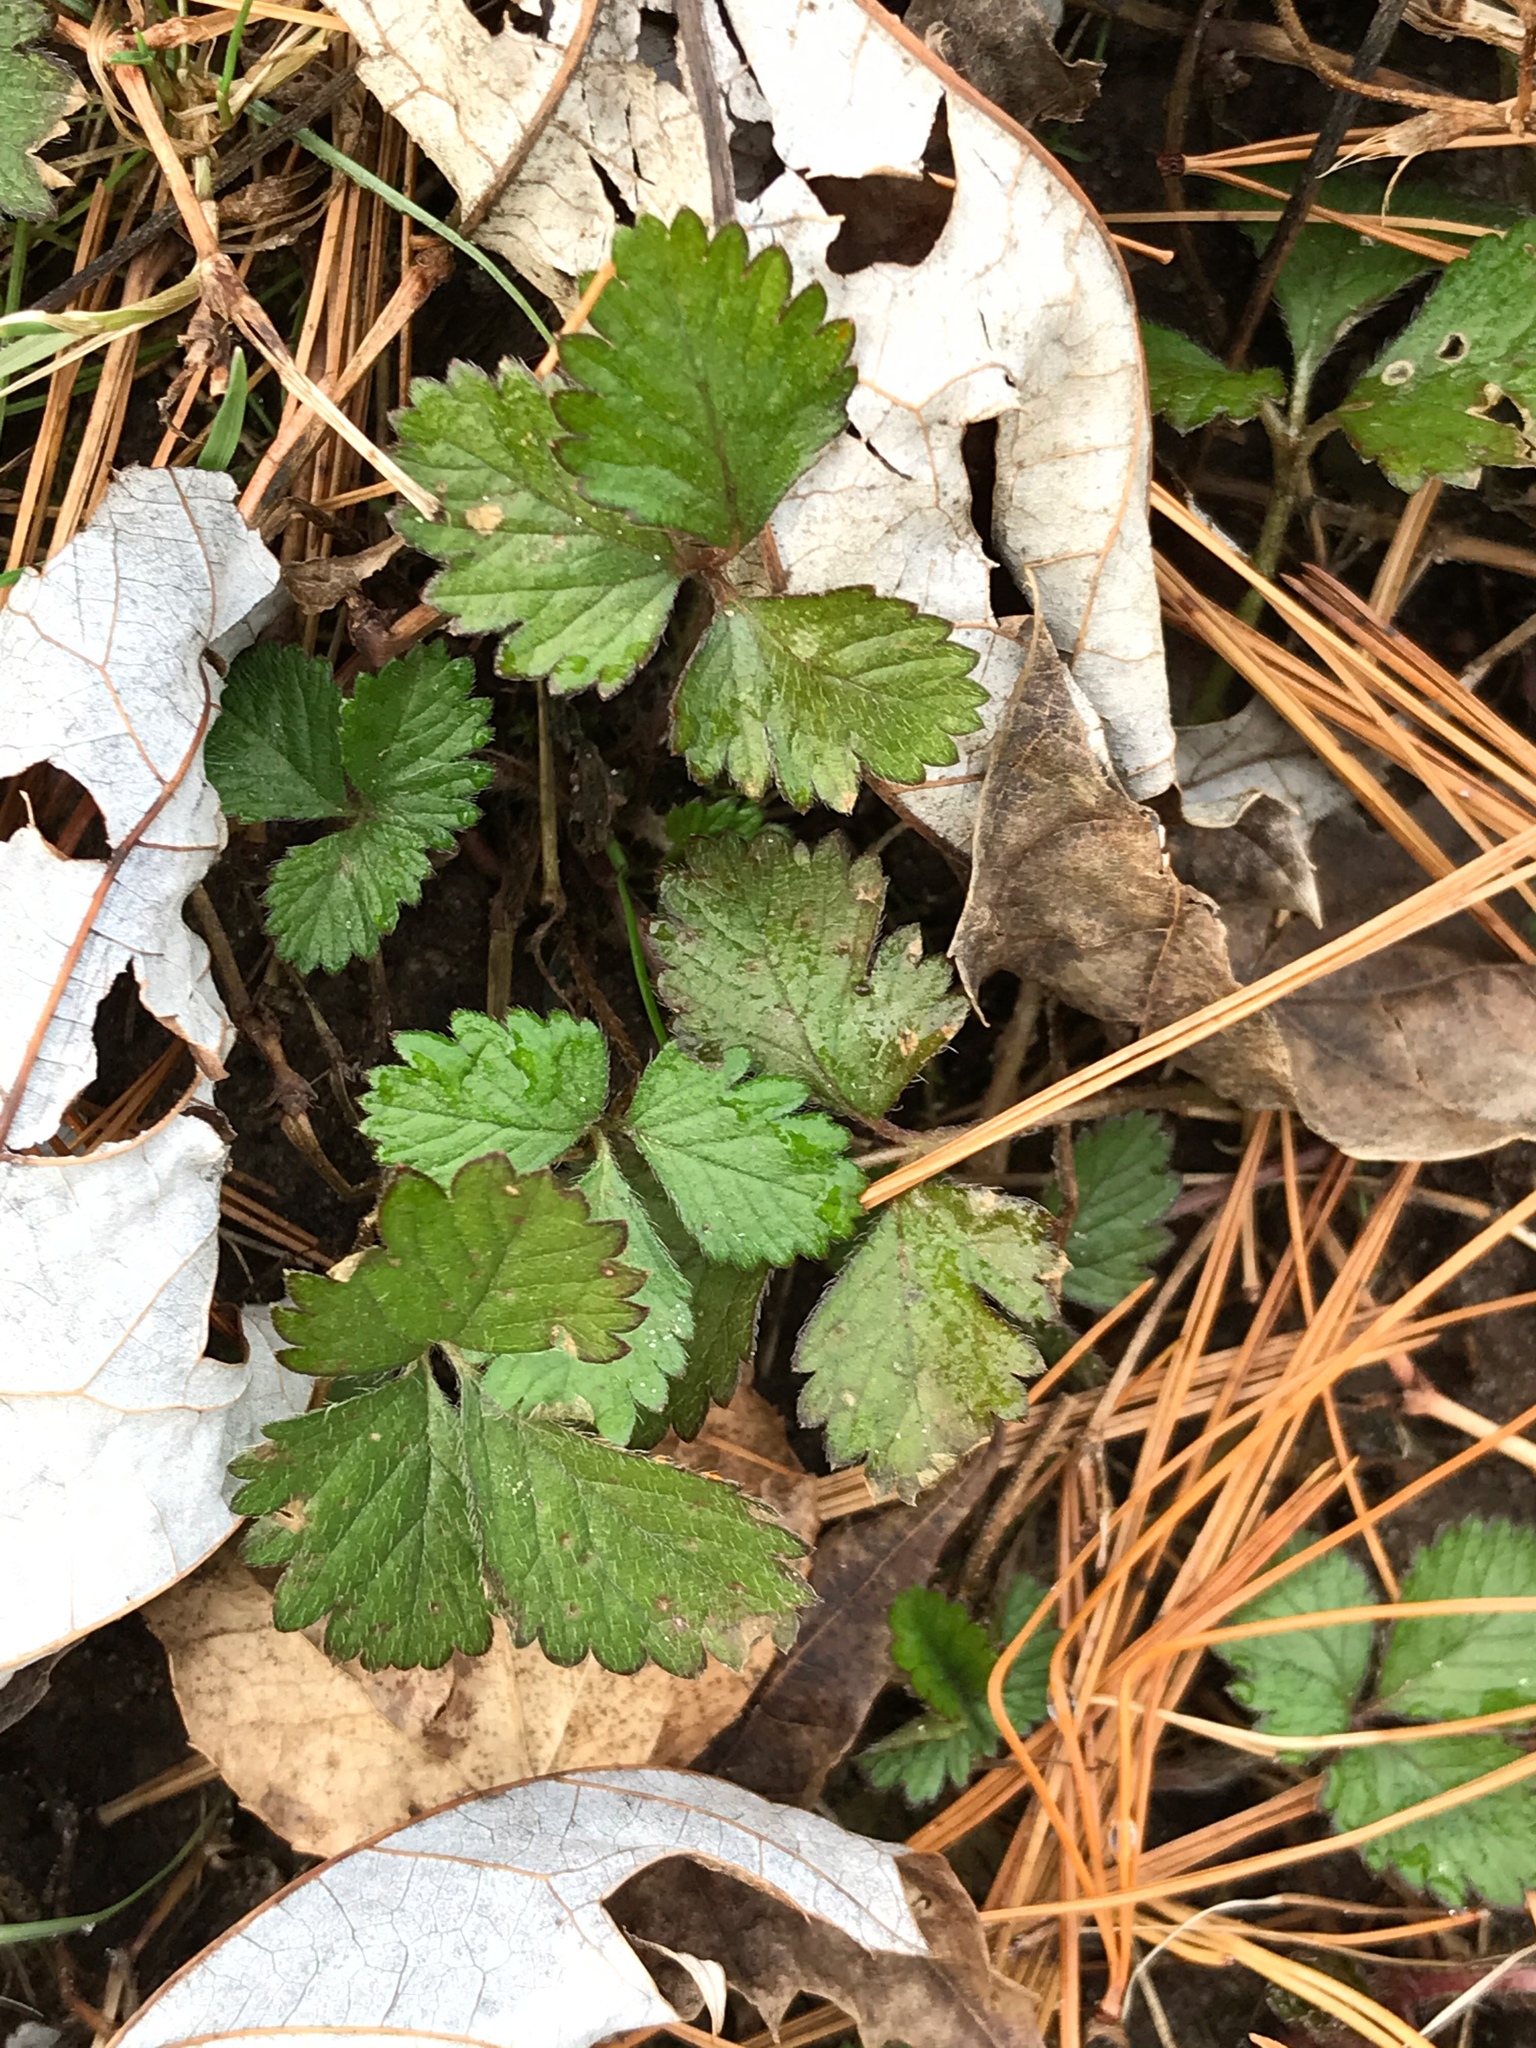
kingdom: Plantae
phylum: Tracheophyta
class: Magnoliopsida
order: Rosales
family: Rosaceae
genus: Potentilla
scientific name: Potentilla indica
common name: Yellow-flowered strawberry
